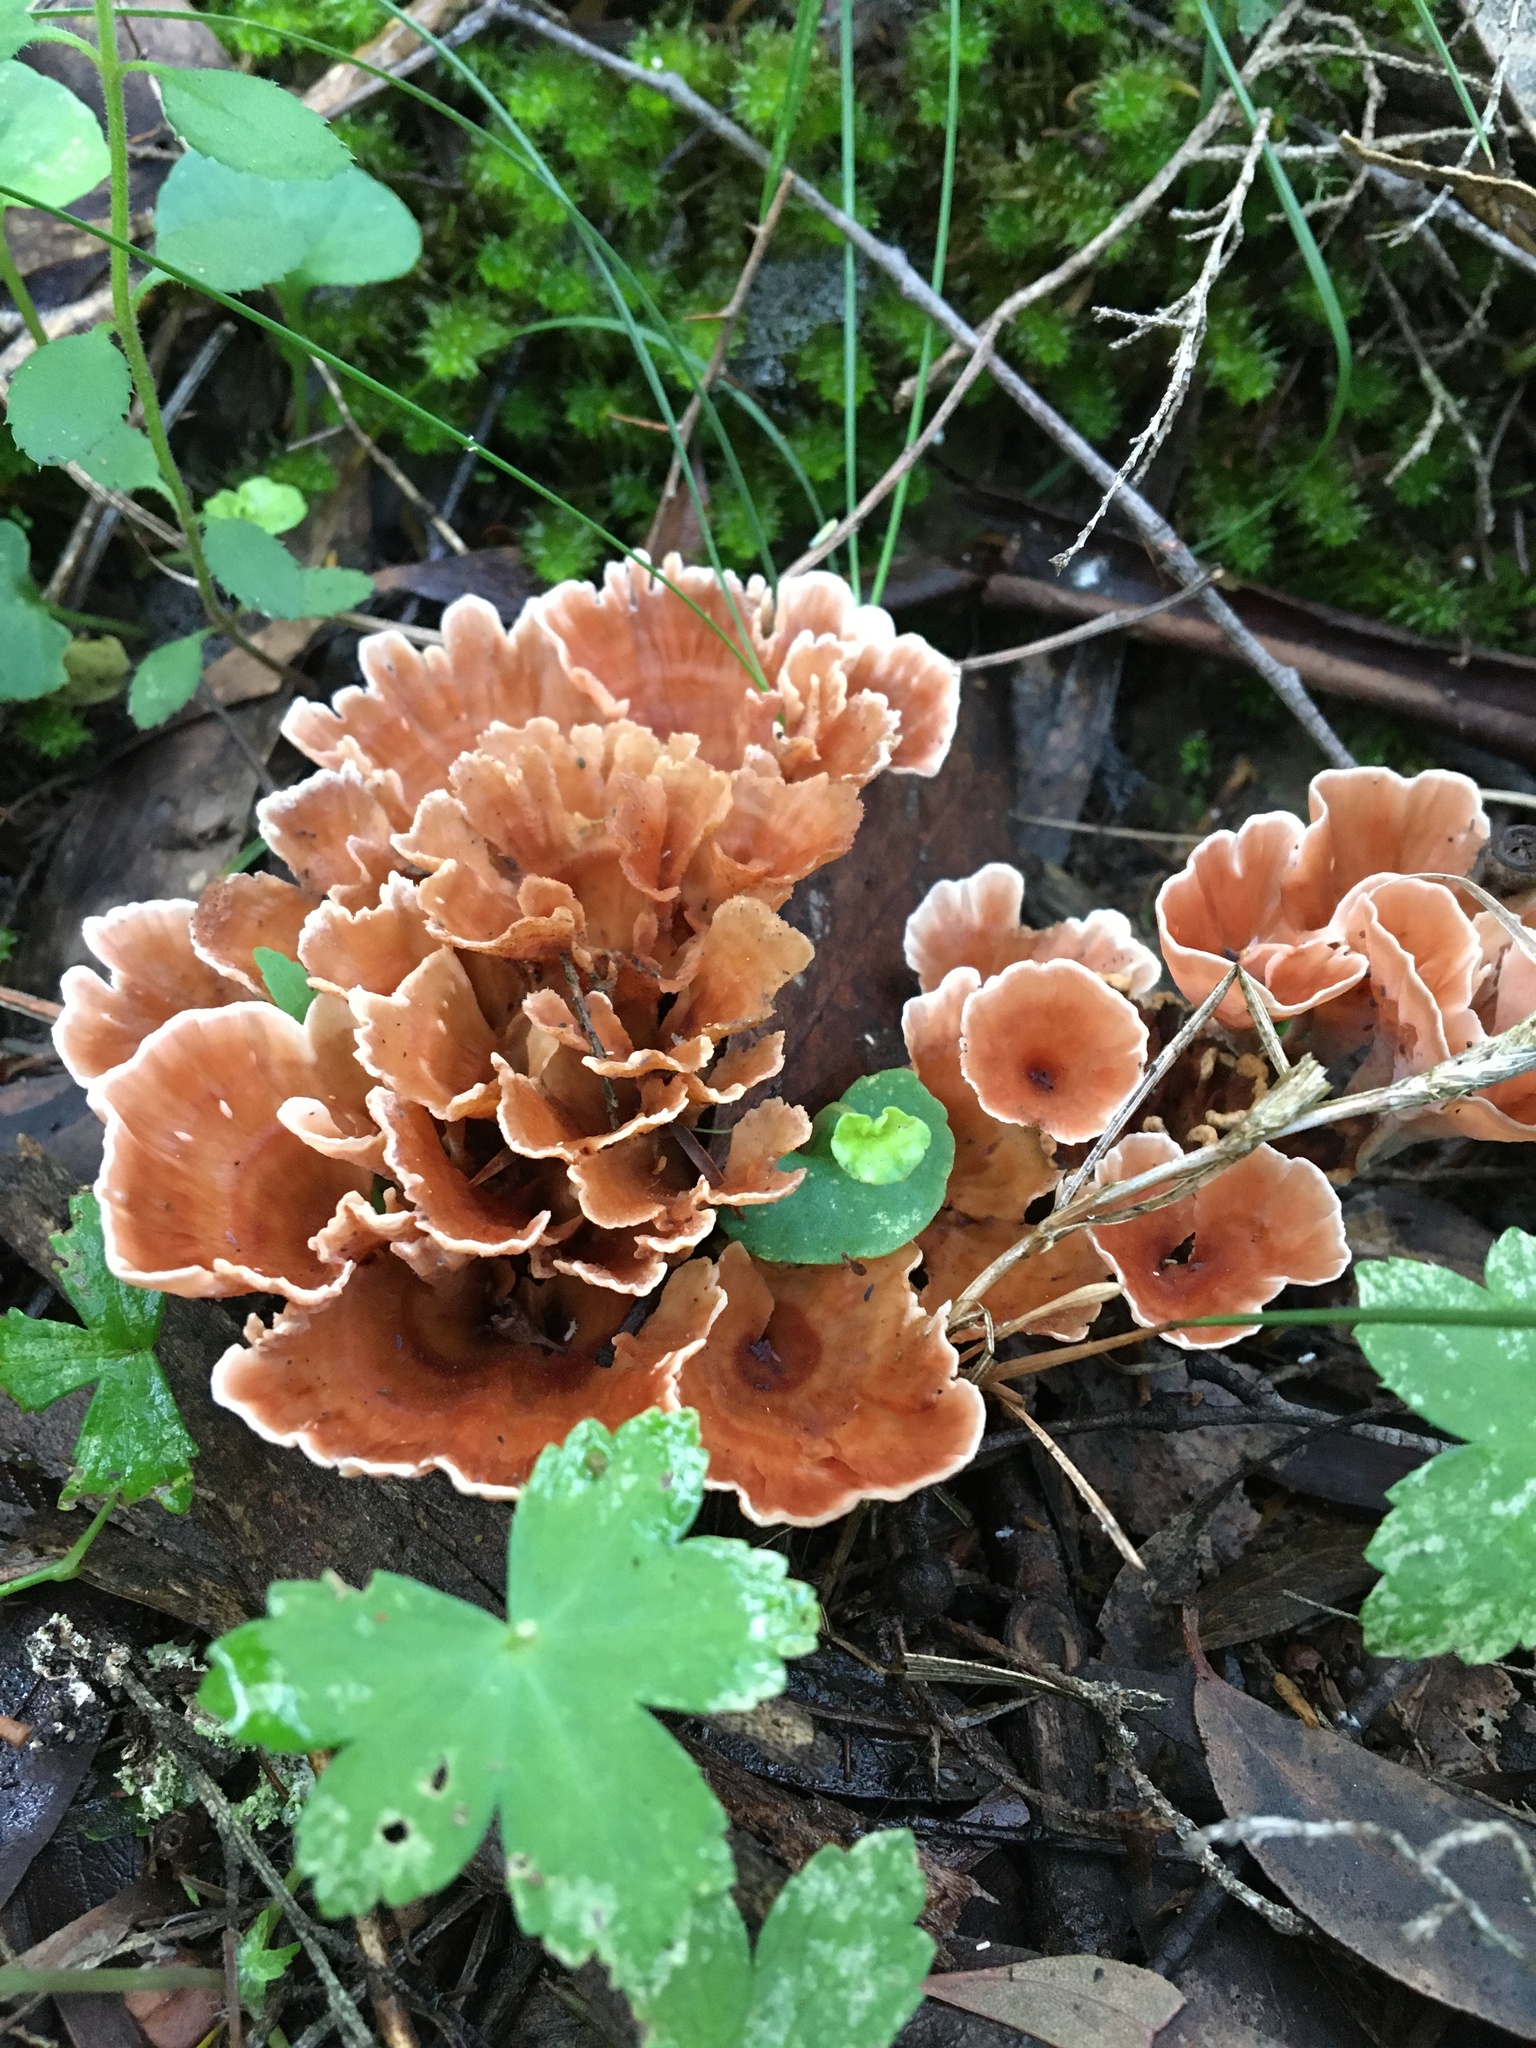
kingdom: Fungi
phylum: Basidiomycota
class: Agaricomycetes
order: Polyporales
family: Podoscyphaceae
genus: Podoscypha
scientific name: Podoscypha petalodes
